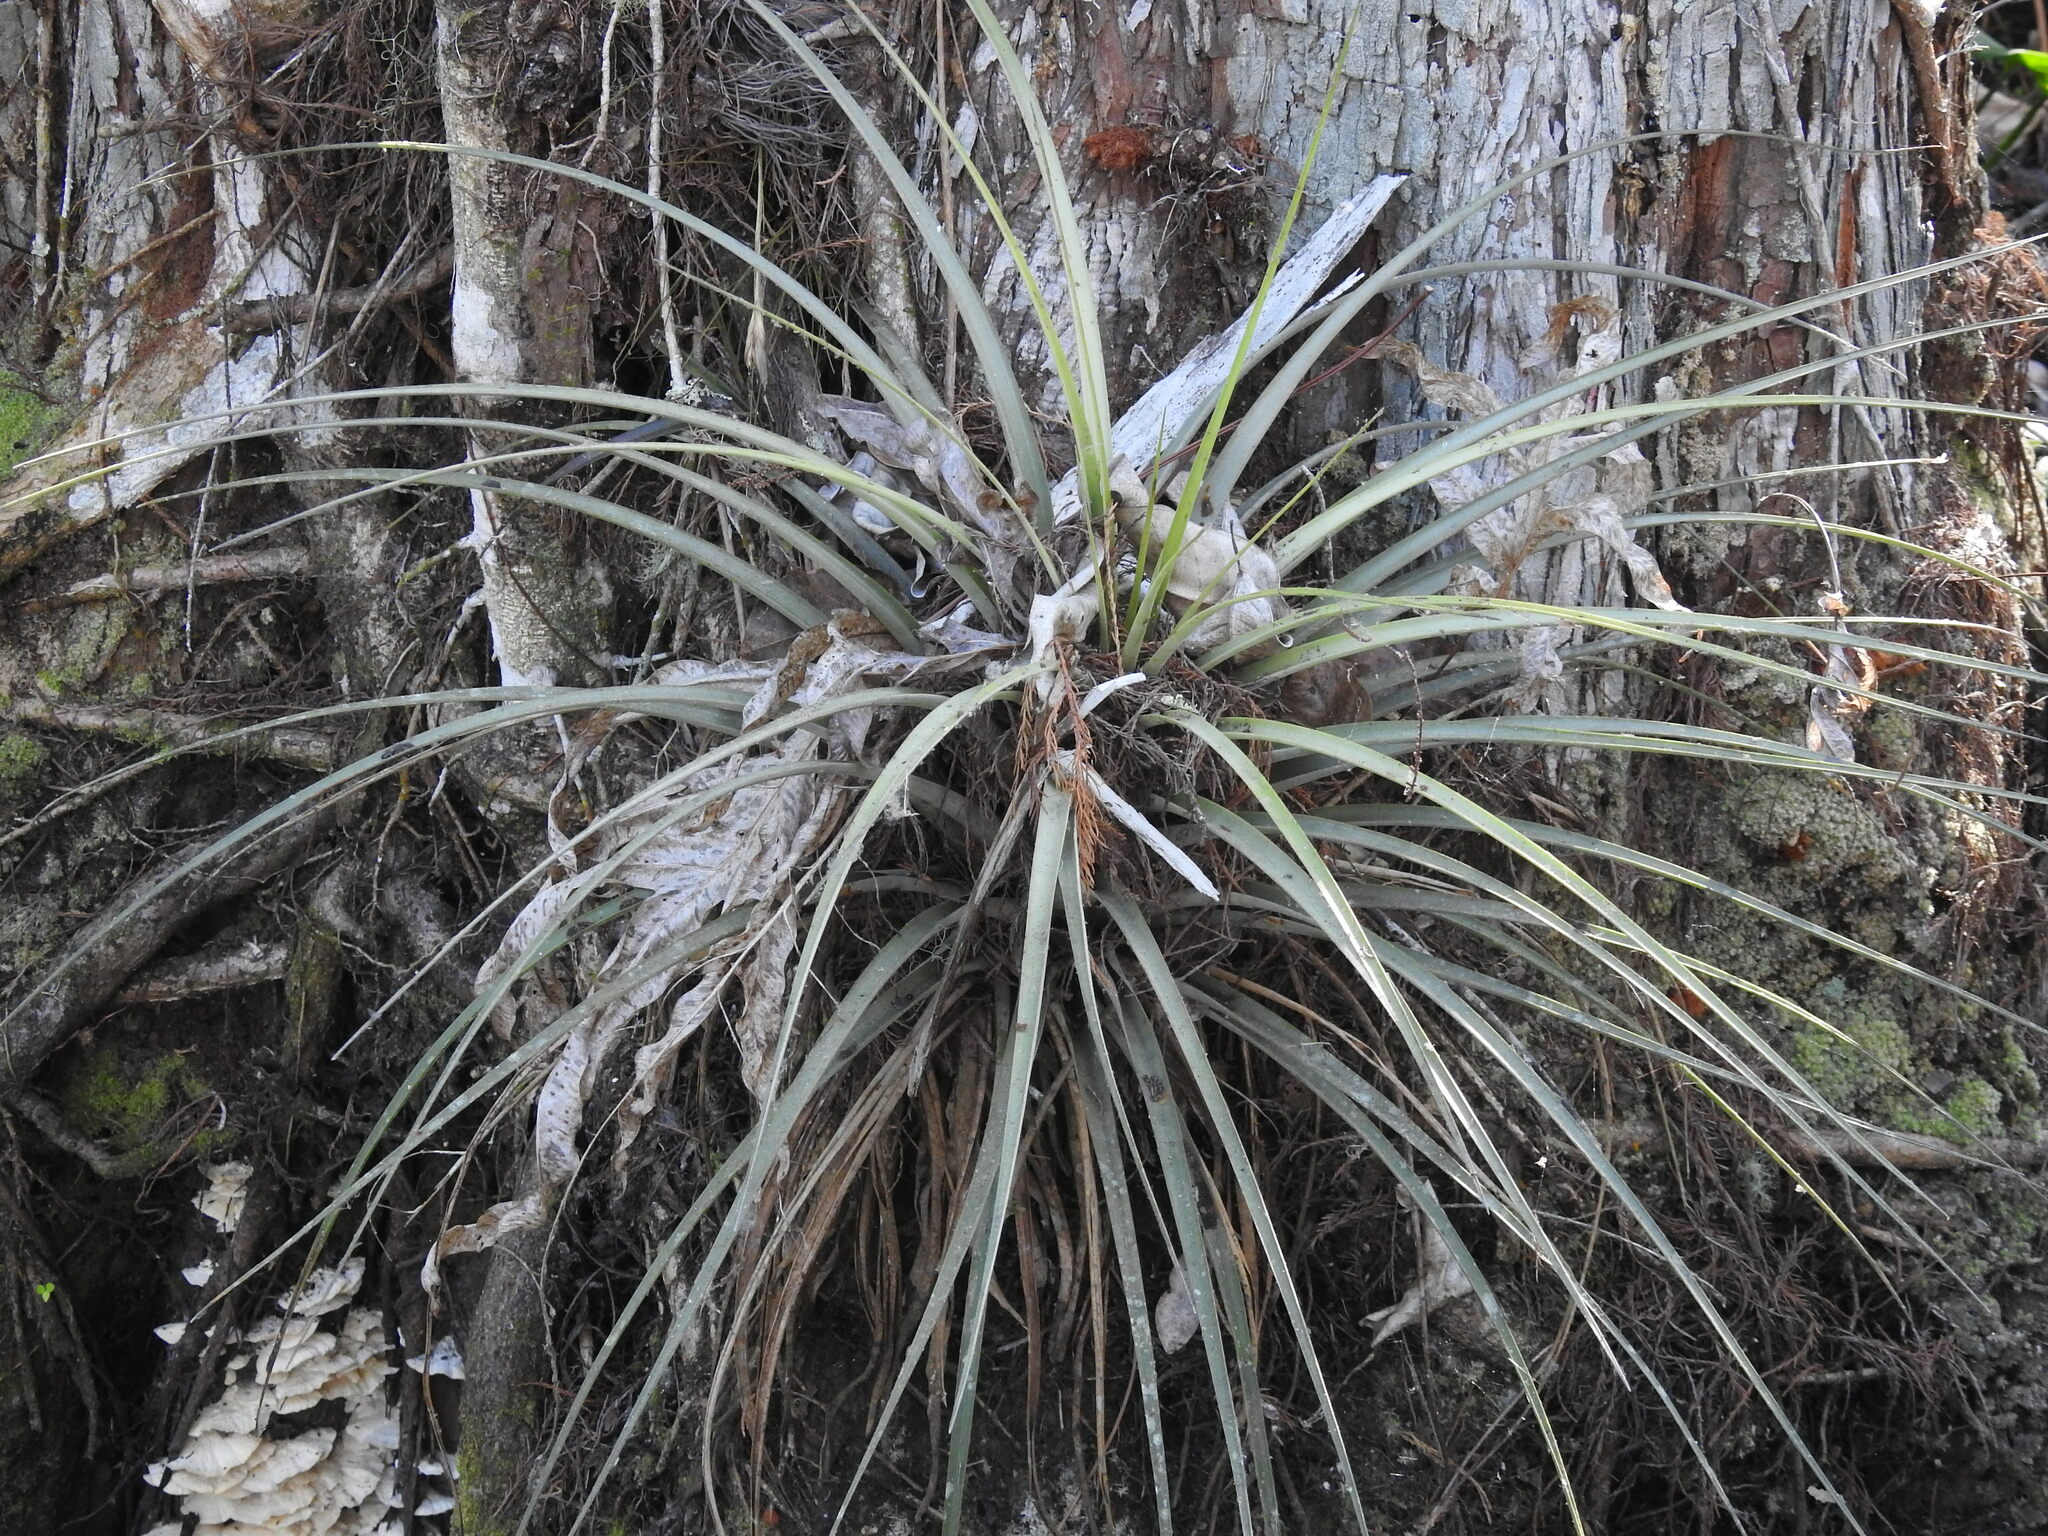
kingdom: Plantae
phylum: Tracheophyta
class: Liliopsida
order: Poales
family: Bromeliaceae
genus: Tillandsia
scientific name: Tillandsia fasciculata
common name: Giant airplant
